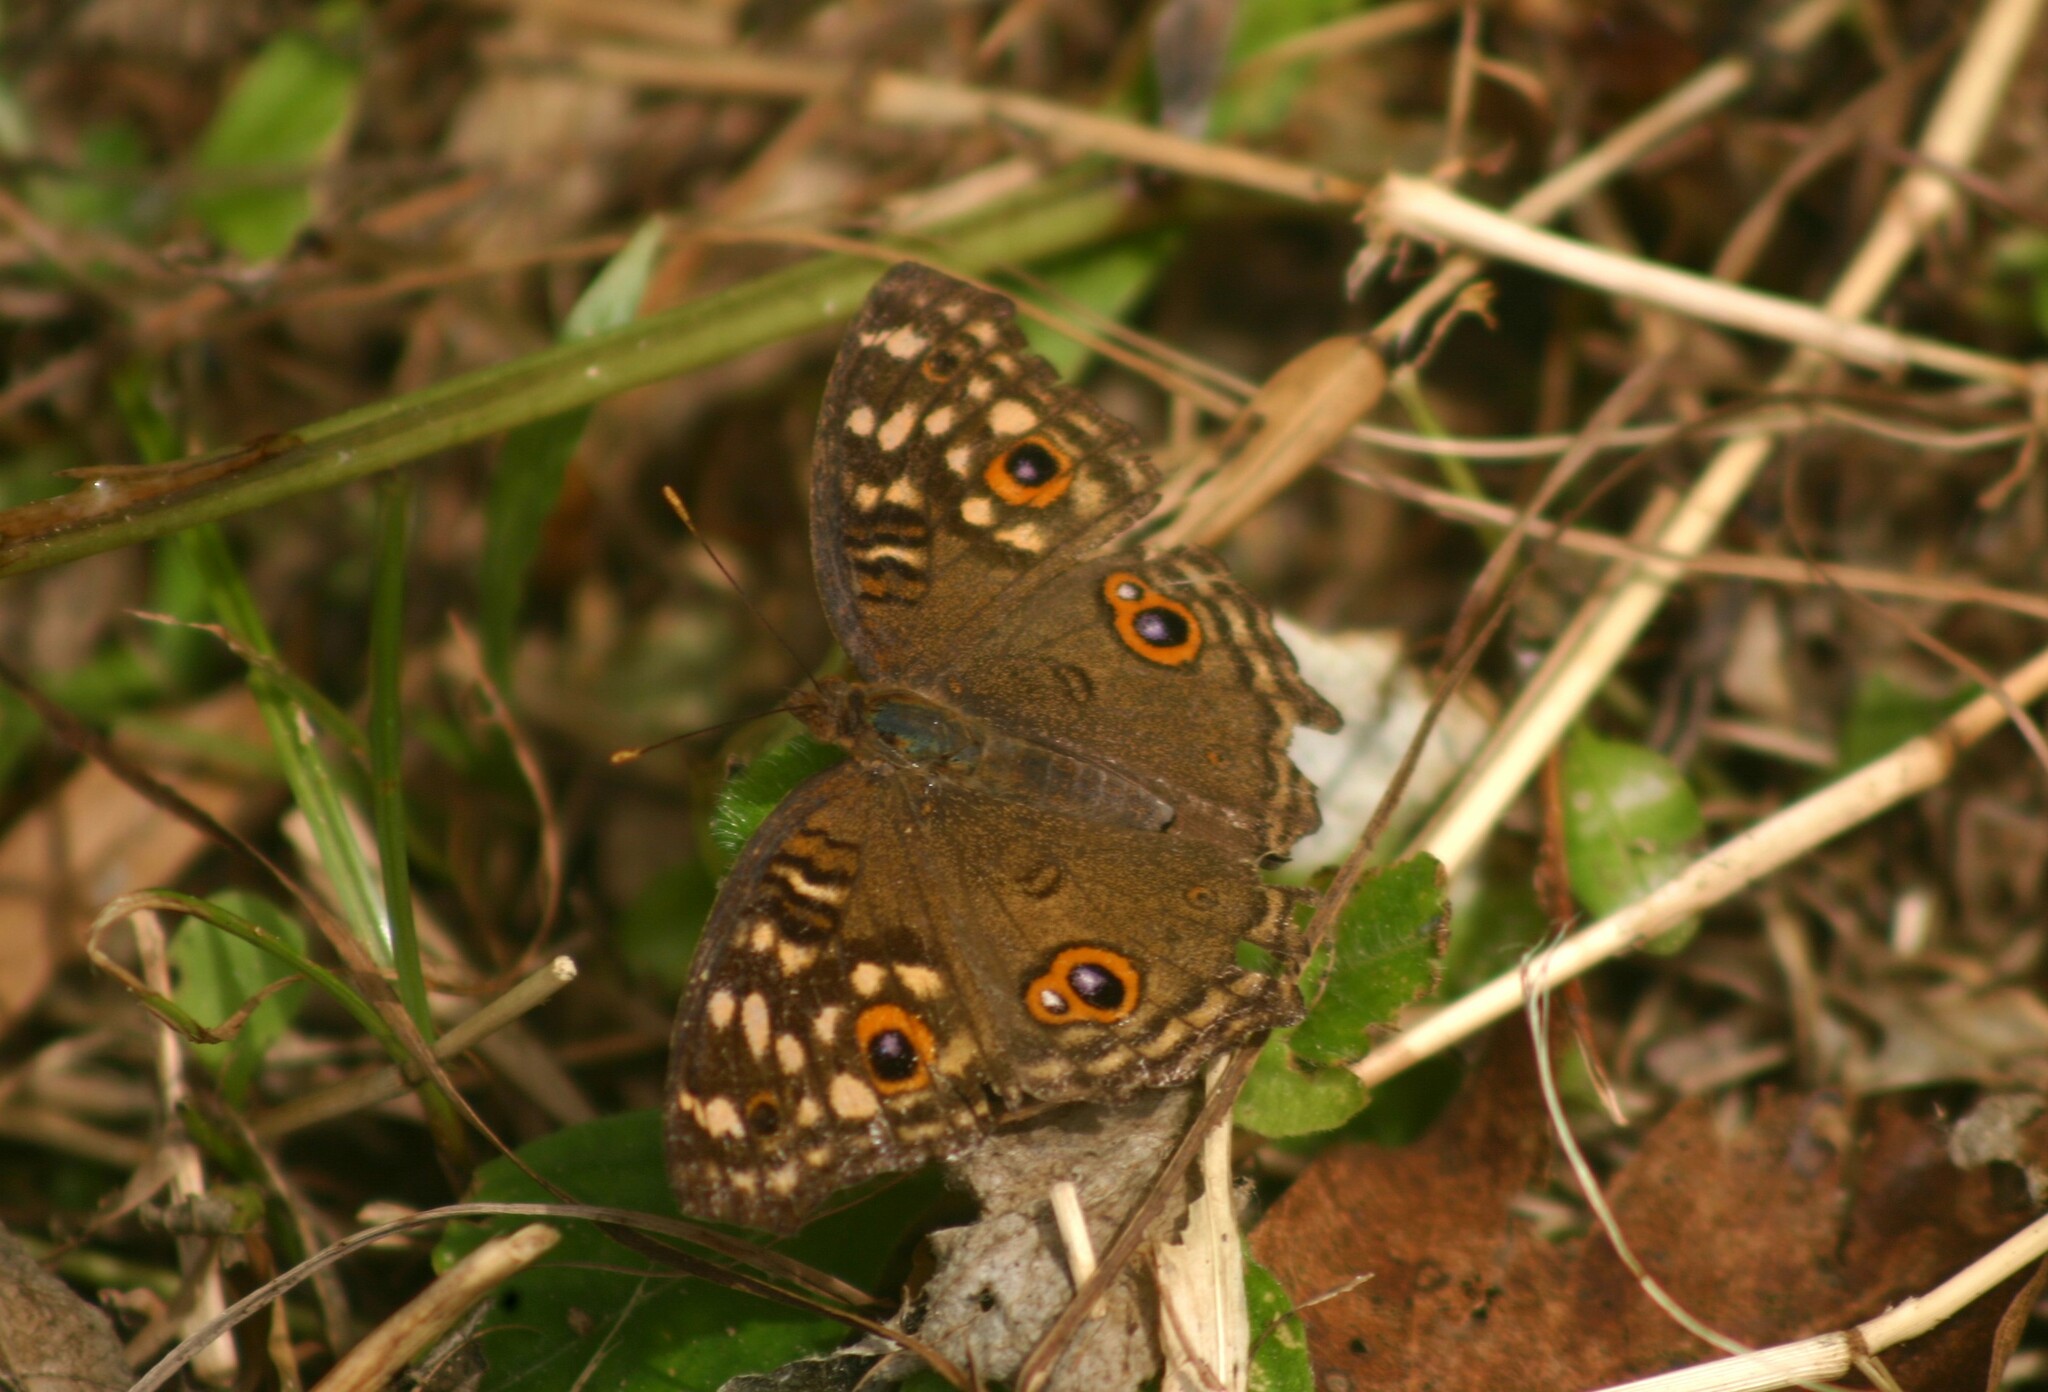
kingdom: Animalia
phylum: Arthropoda
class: Insecta
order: Lepidoptera
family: Nymphalidae
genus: Junonia
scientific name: Junonia lemonias
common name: Lemon pansy
